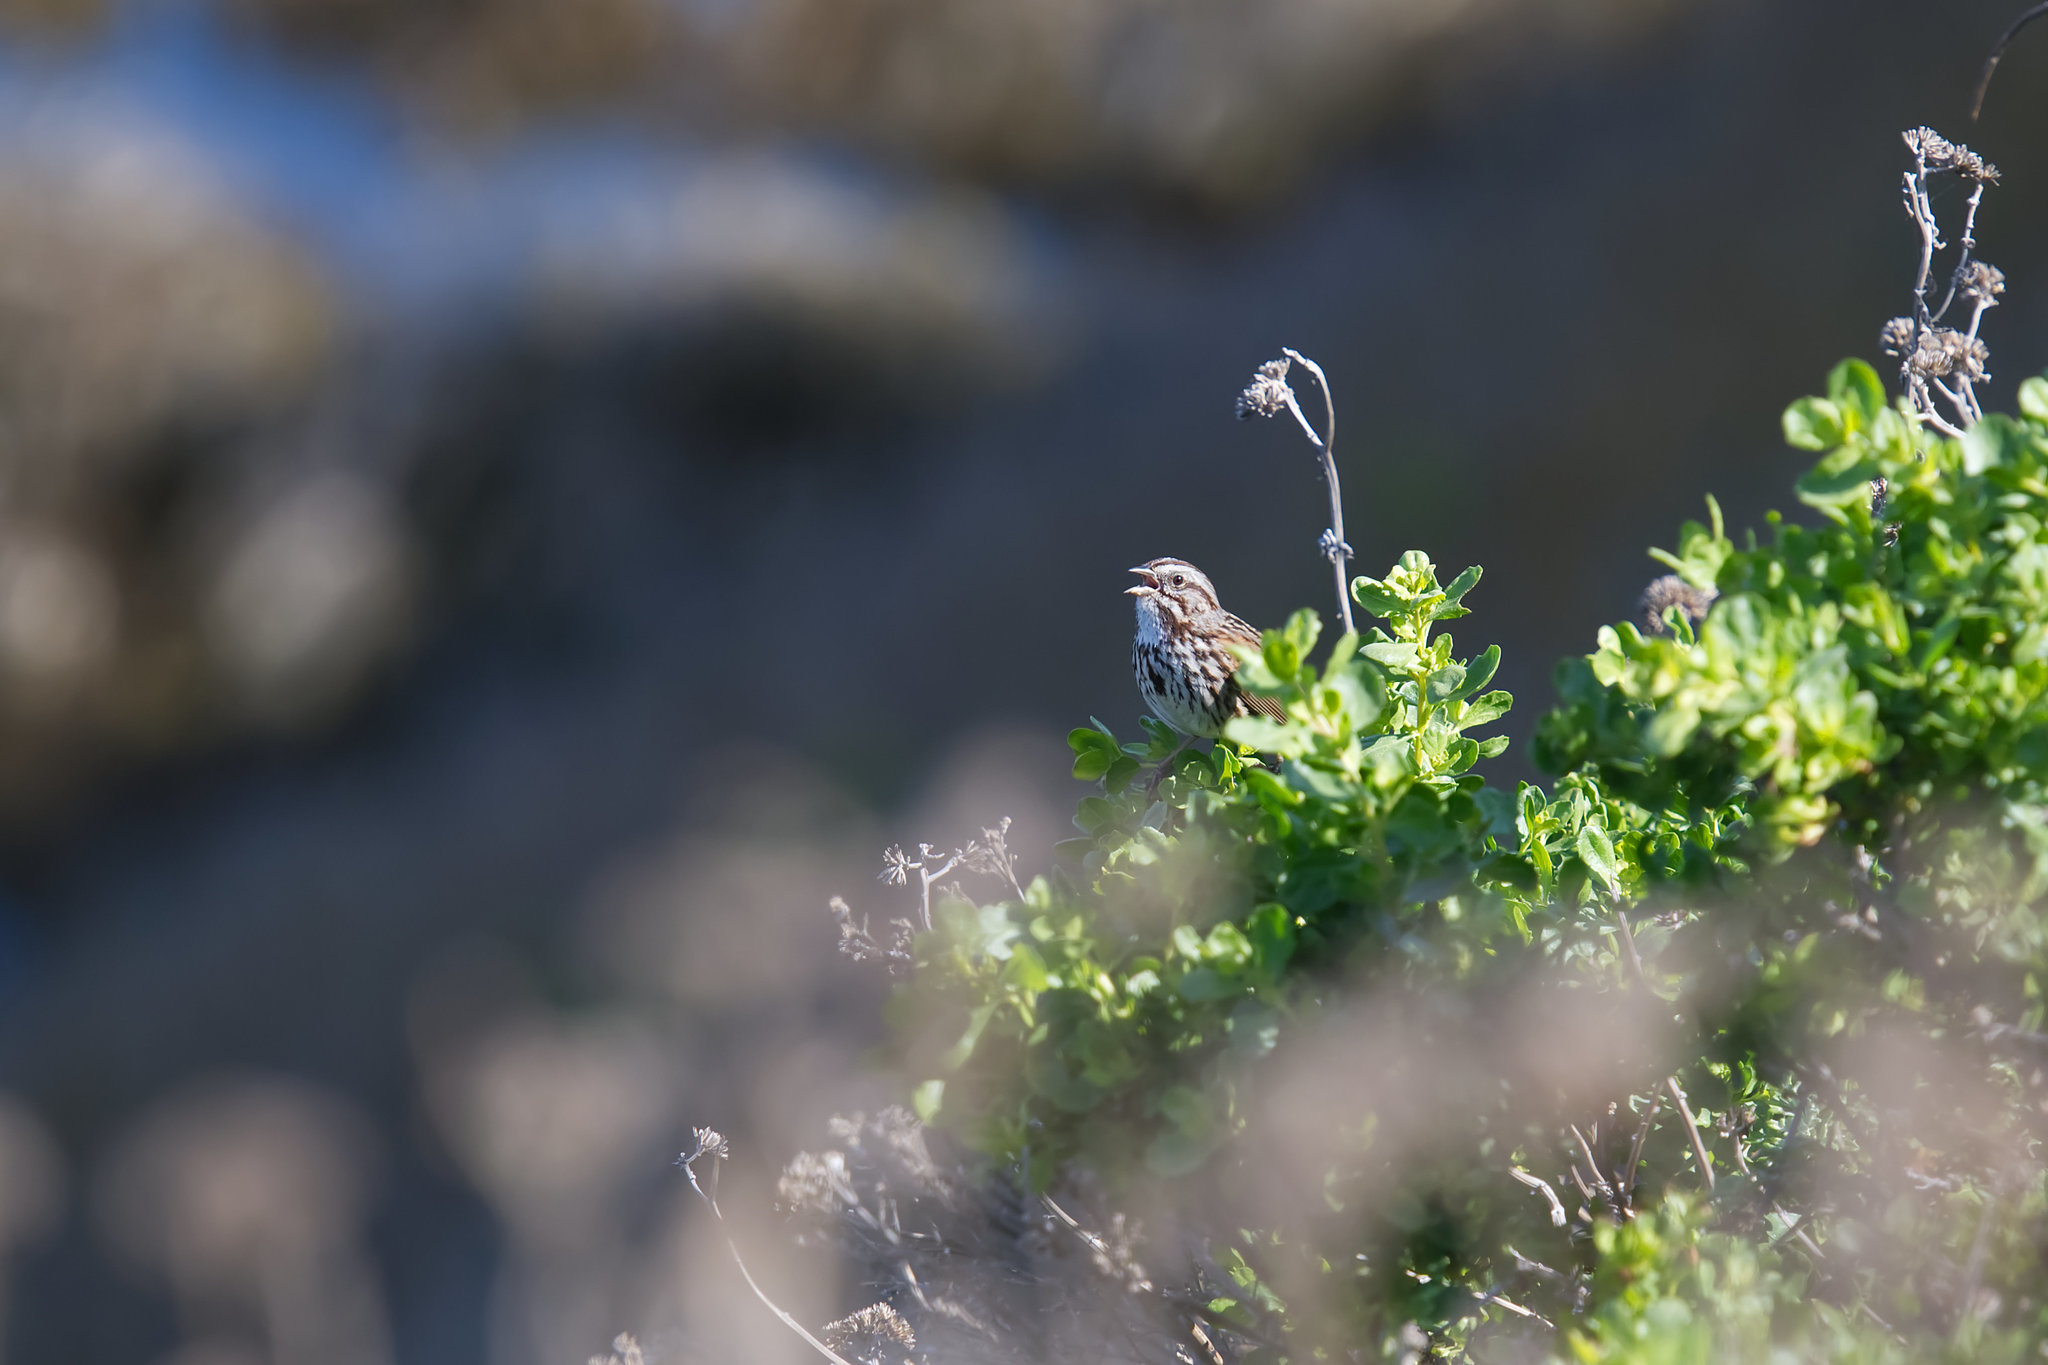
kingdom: Animalia
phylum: Chordata
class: Aves
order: Passeriformes
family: Passerellidae
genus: Melospiza
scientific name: Melospiza melodia
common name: Song sparrow
